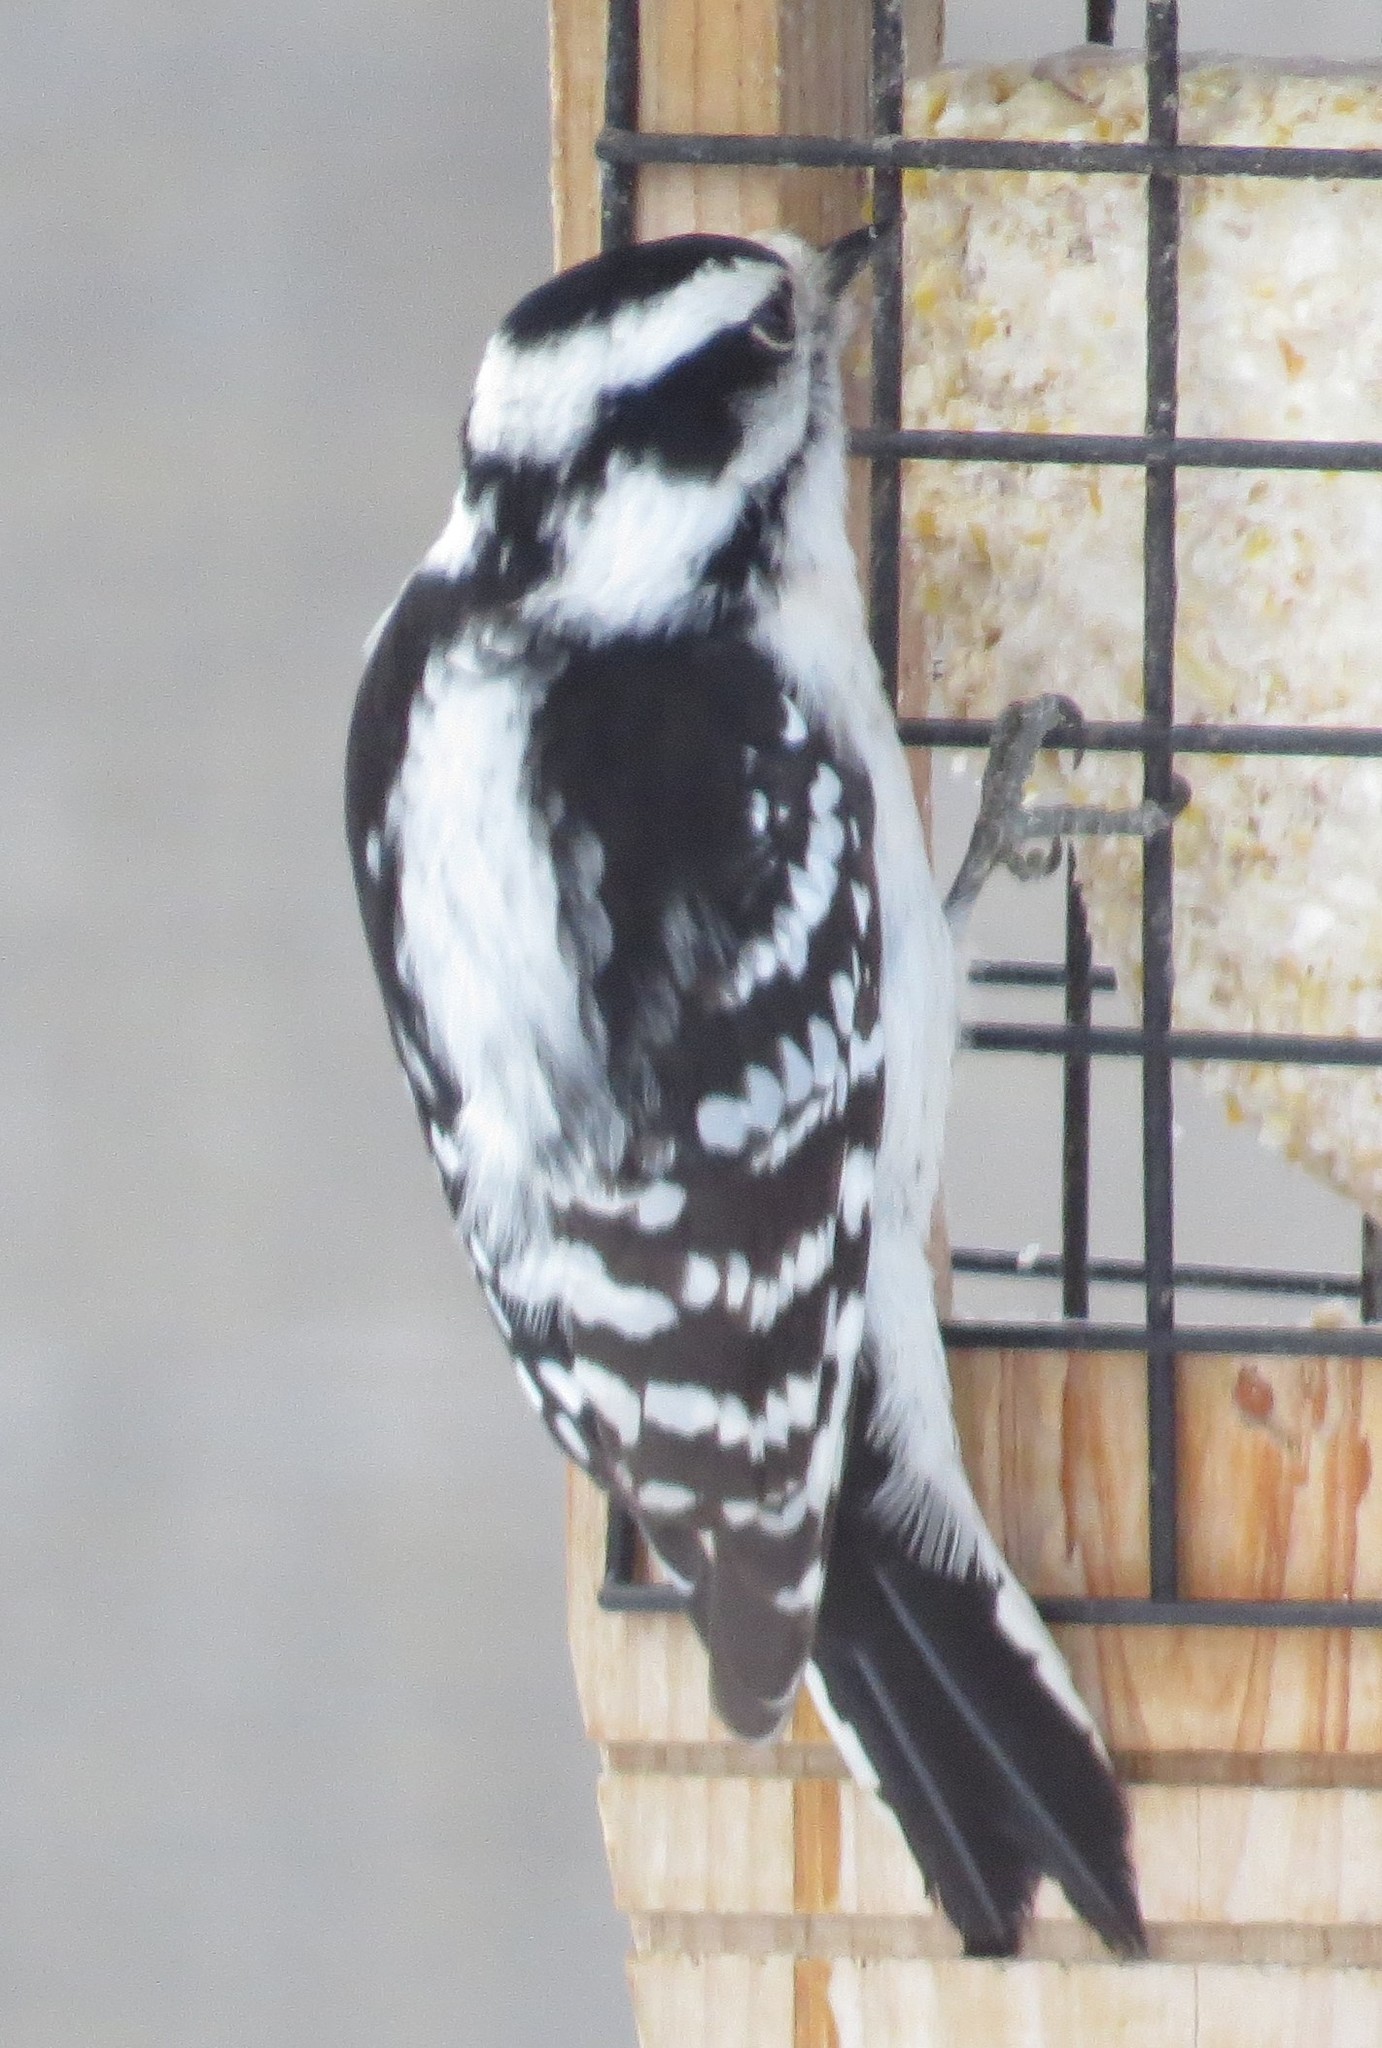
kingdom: Animalia
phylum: Chordata
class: Aves
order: Piciformes
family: Picidae
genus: Dryobates
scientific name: Dryobates pubescens
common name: Downy woodpecker
